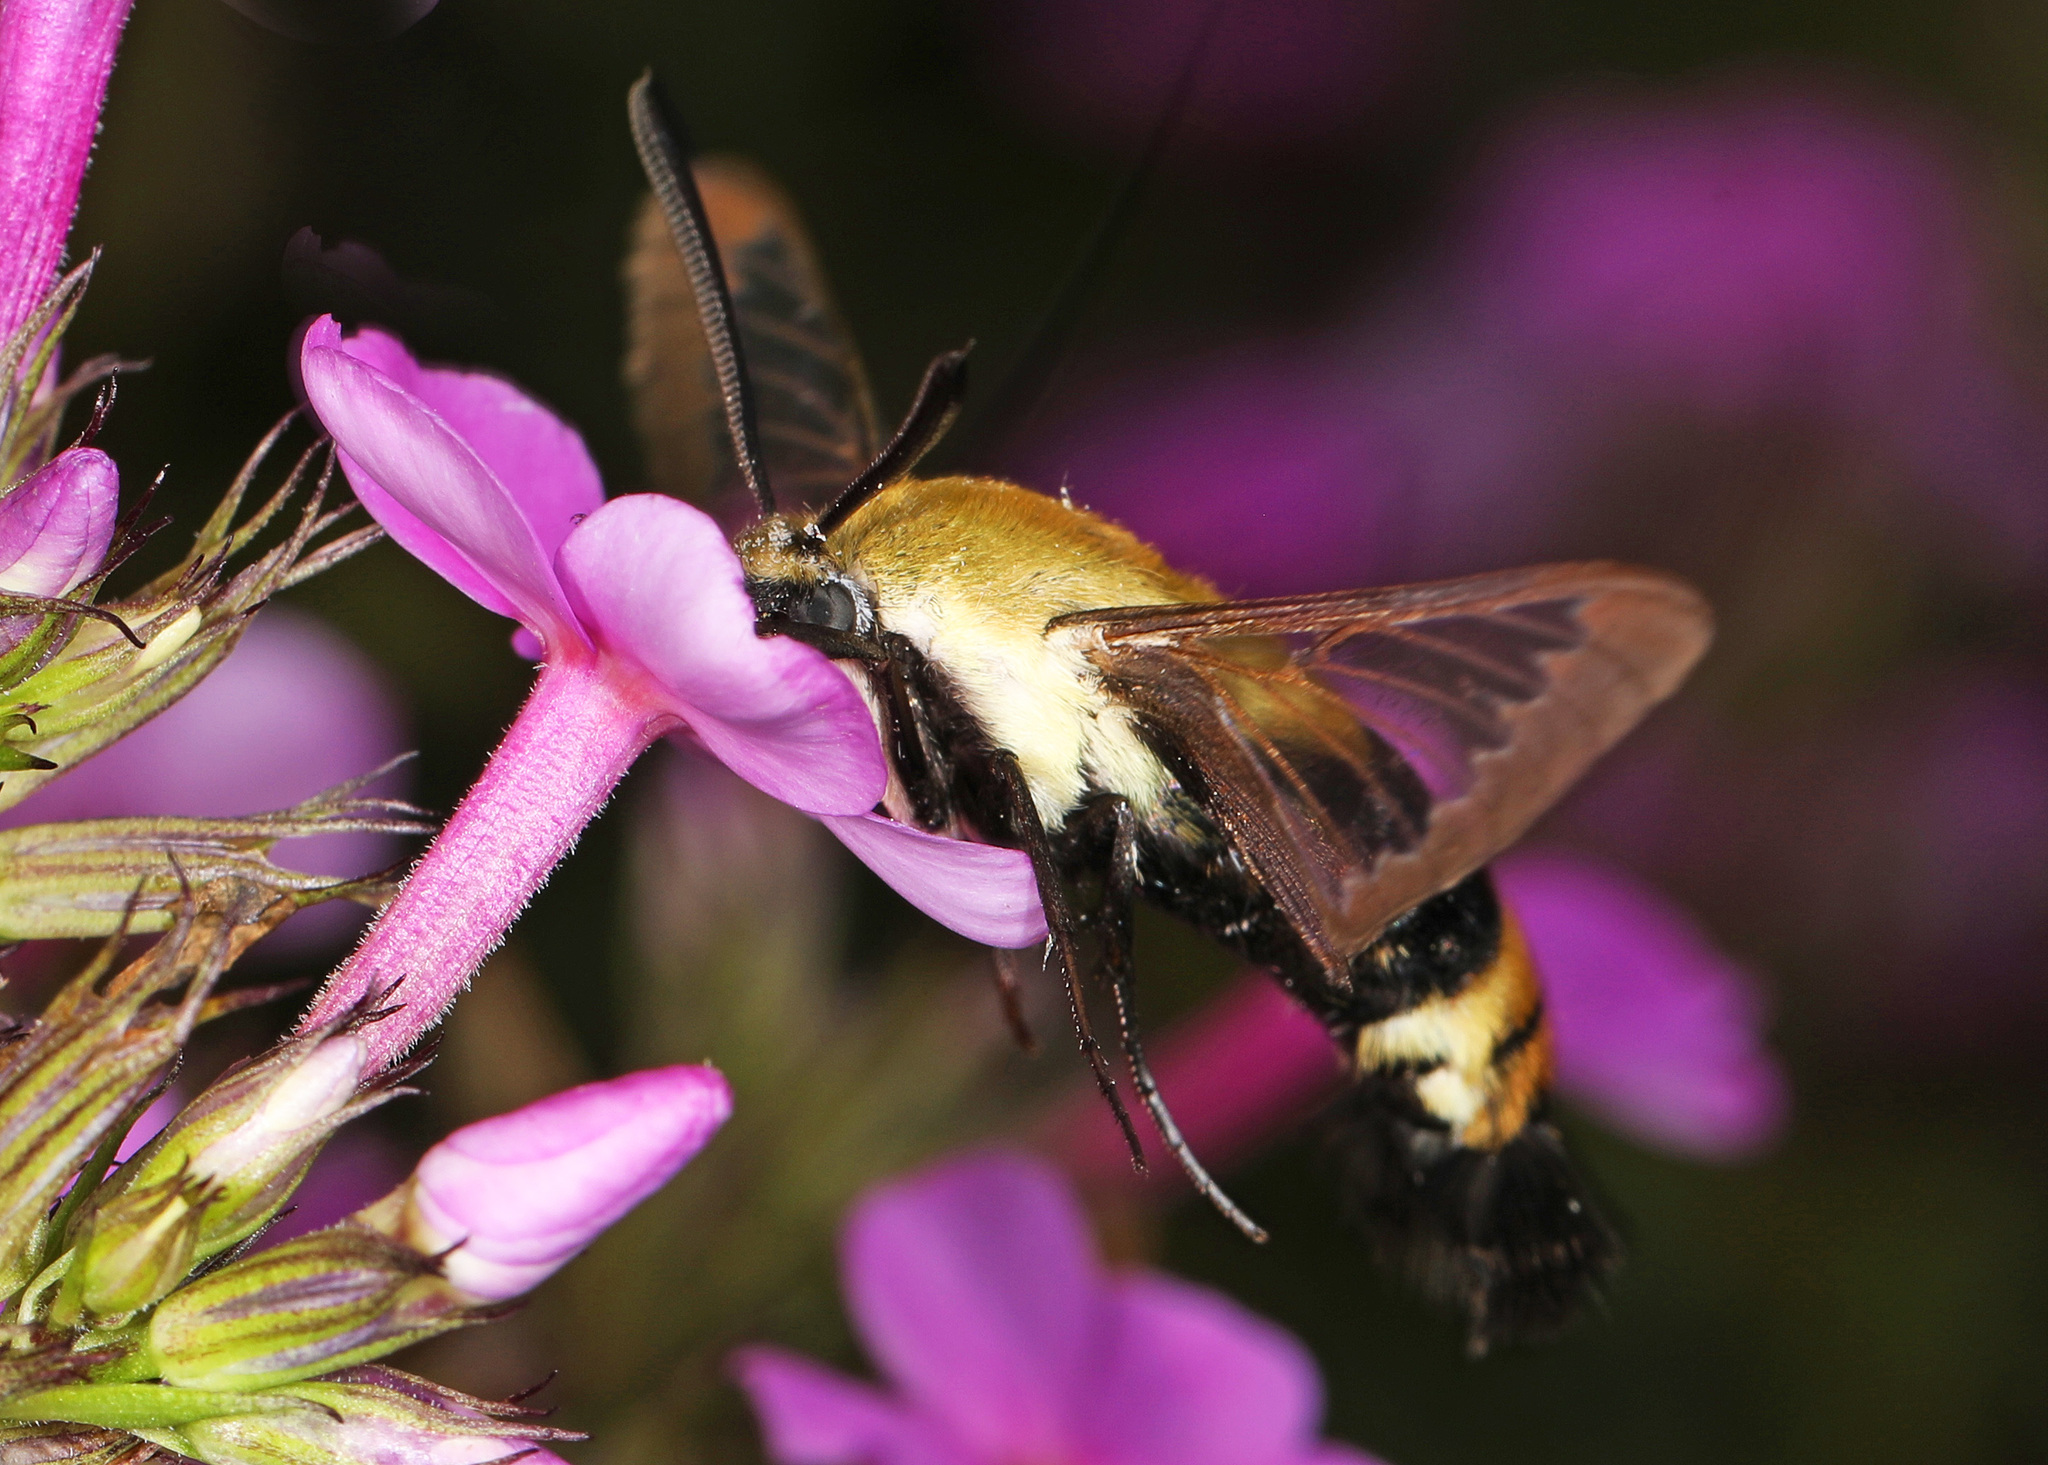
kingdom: Animalia
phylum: Arthropoda
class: Insecta
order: Lepidoptera
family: Sphingidae
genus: Hemaris
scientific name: Hemaris diffinis
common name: Bumblebee moth
